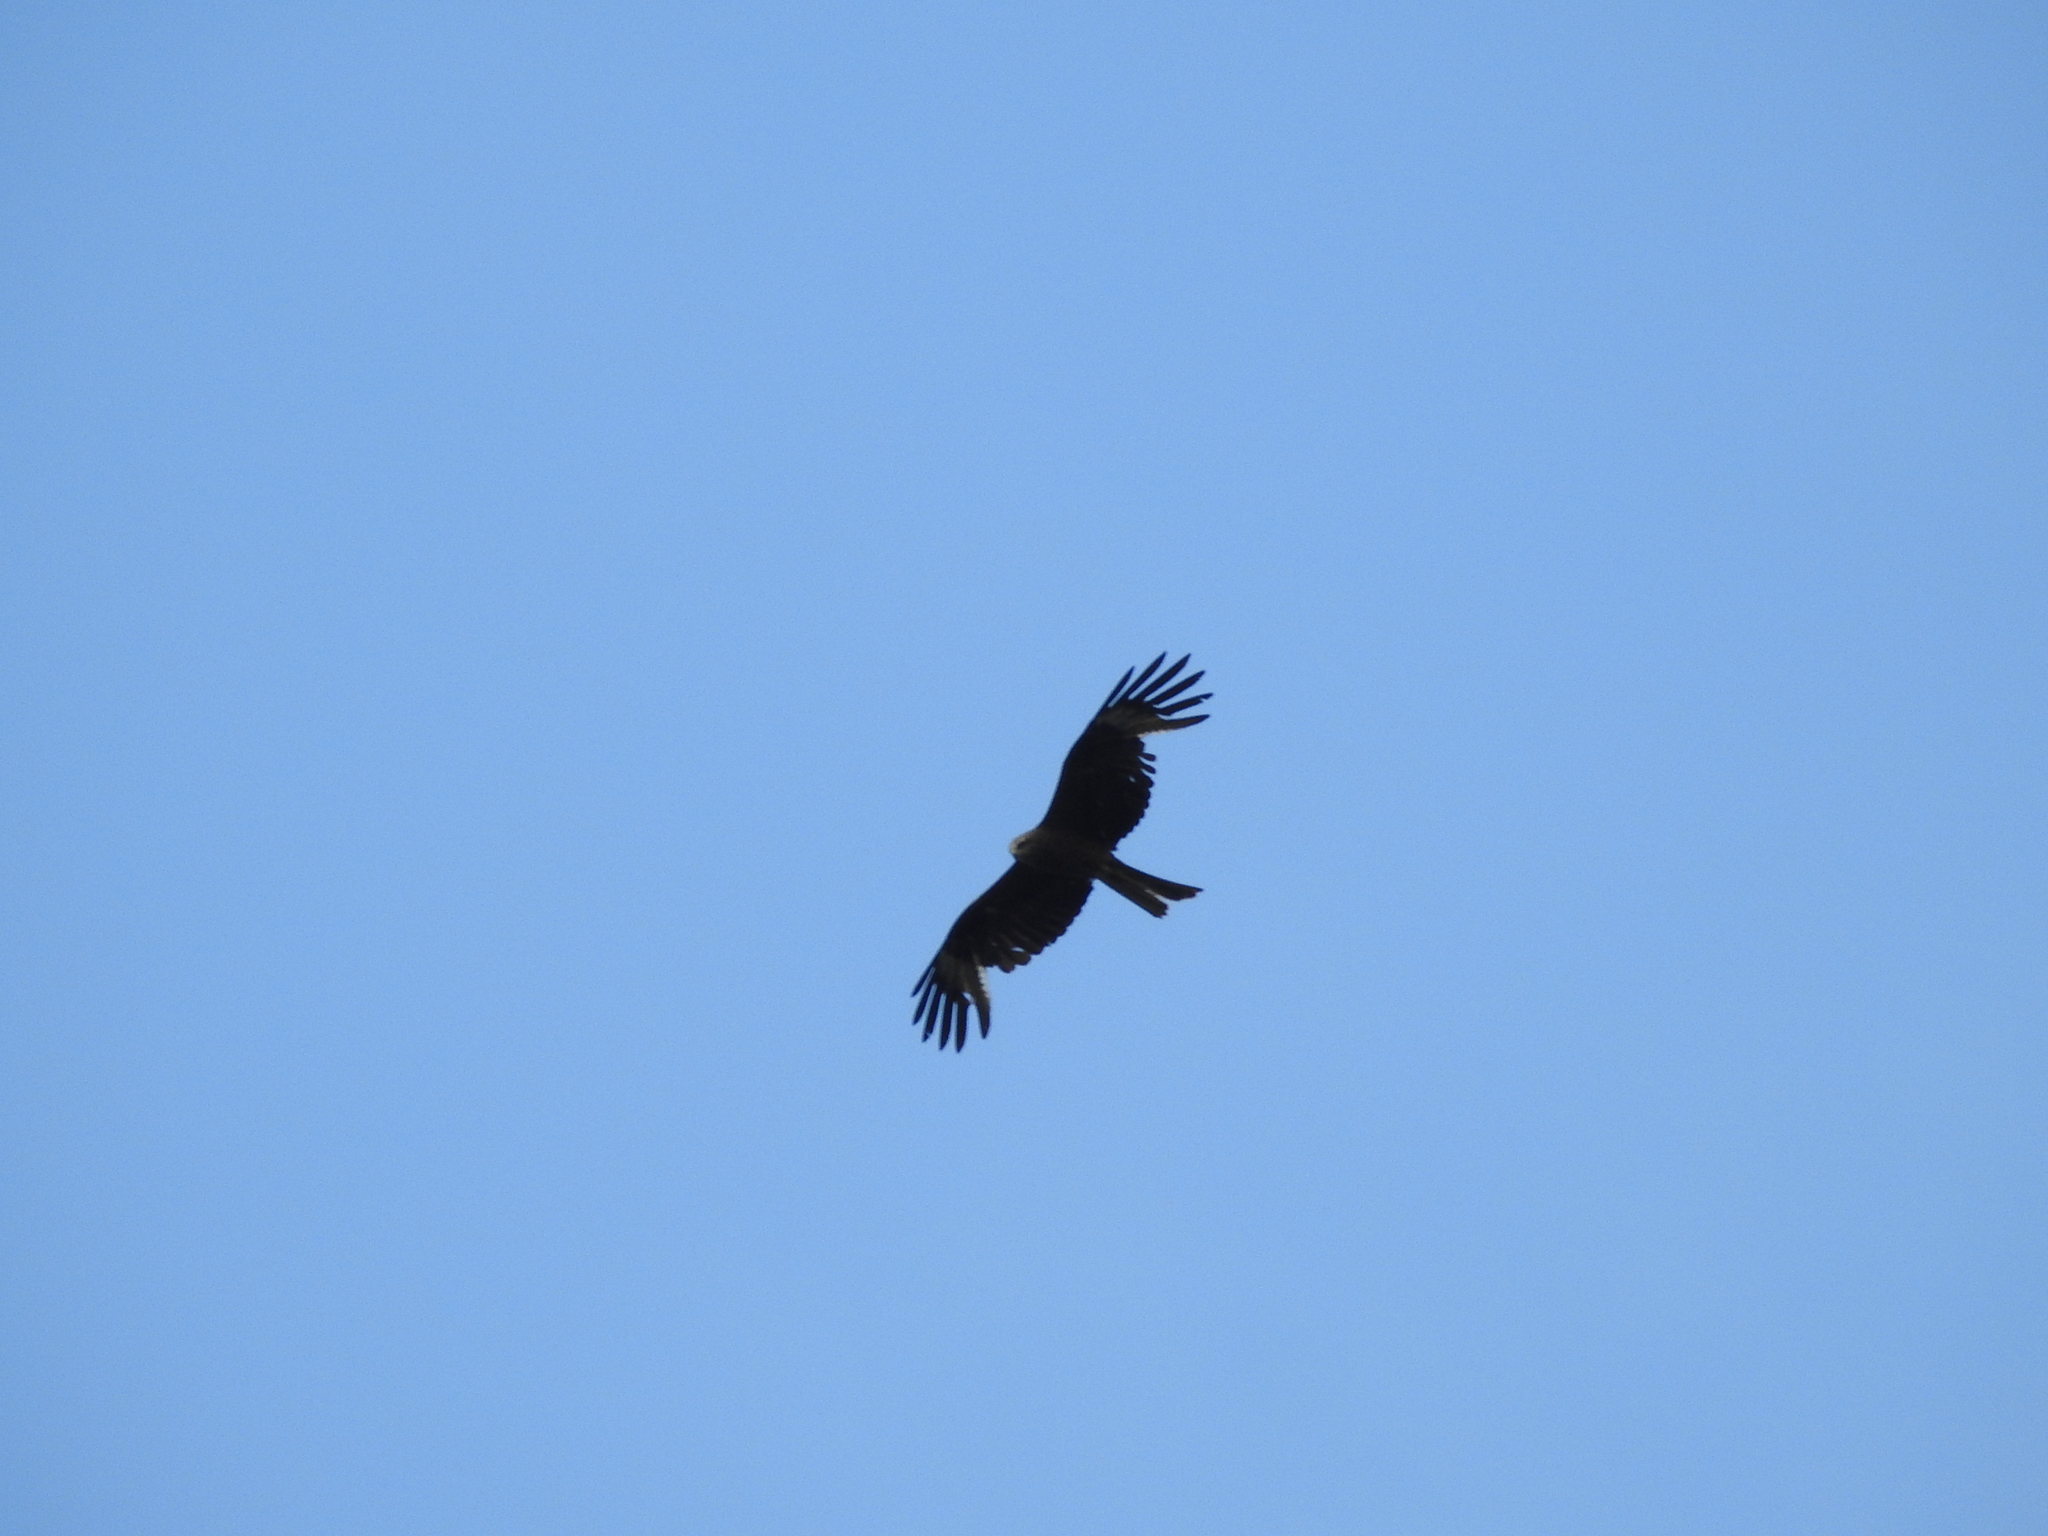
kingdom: Animalia
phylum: Chordata
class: Aves
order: Accipitriformes
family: Accipitridae
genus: Milvus
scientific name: Milvus migrans
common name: Black kite
